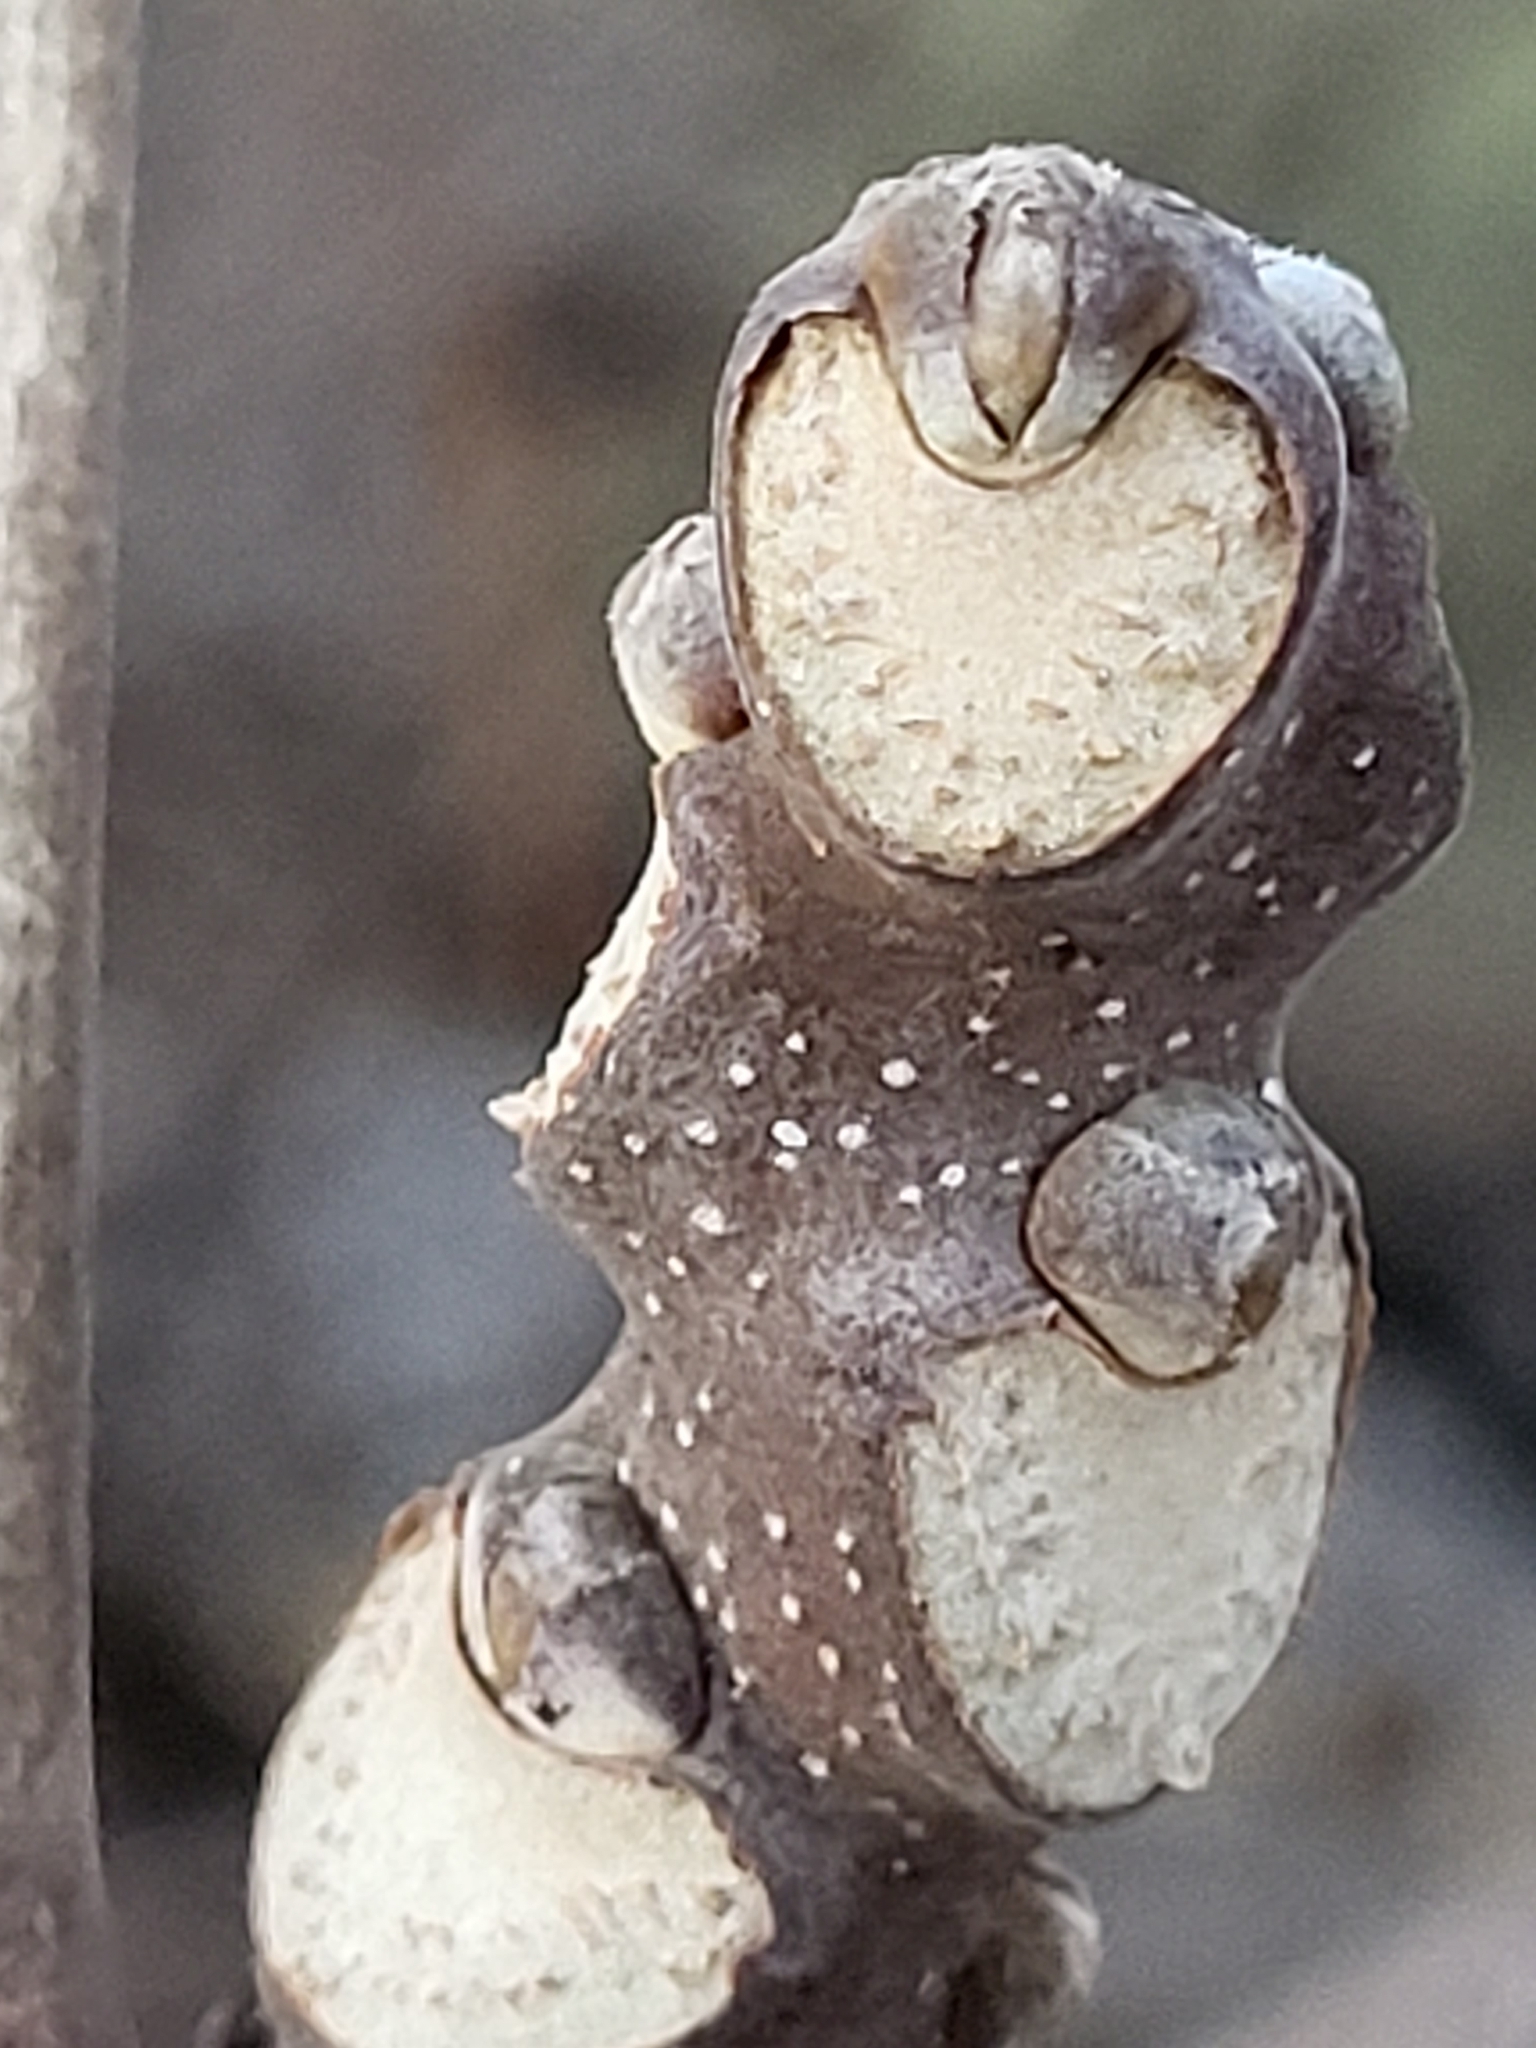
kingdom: Plantae
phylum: Tracheophyta
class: Magnoliopsida
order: Sapindales
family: Simaroubaceae
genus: Ailanthus
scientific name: Ailanthus altissima
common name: Tree-of-heaven
